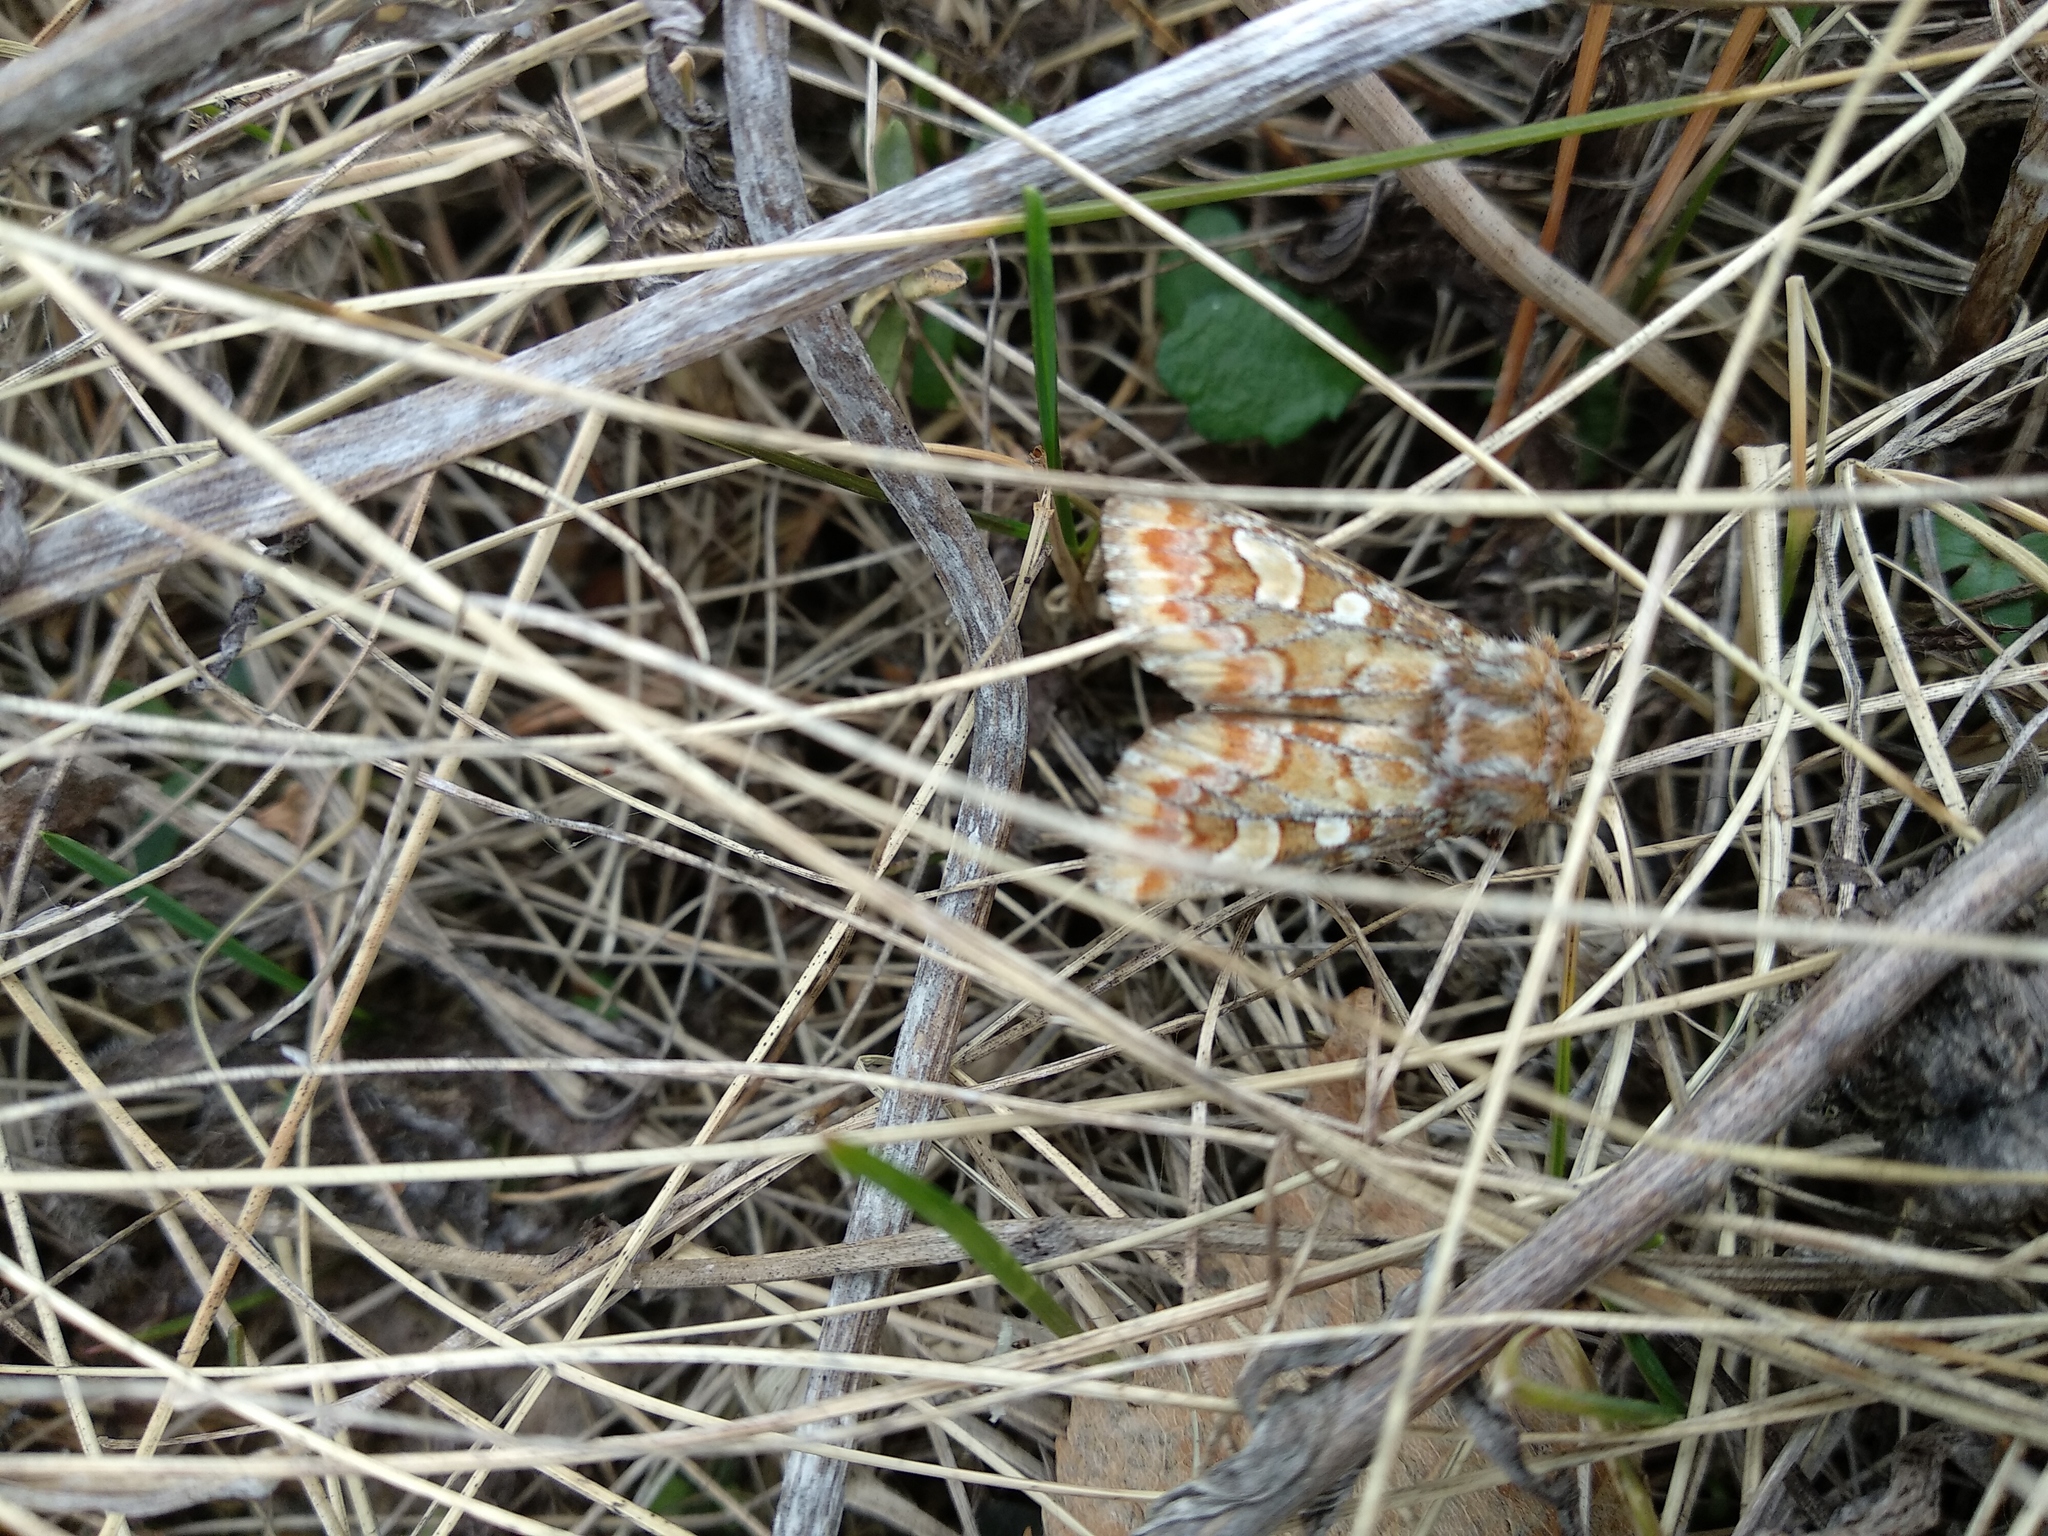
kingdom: Animalia
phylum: Arthropoda
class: Insecta
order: Lepidoptera
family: Noctuidae
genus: Panolis
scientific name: Panolis flammea
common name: Pine beauty
